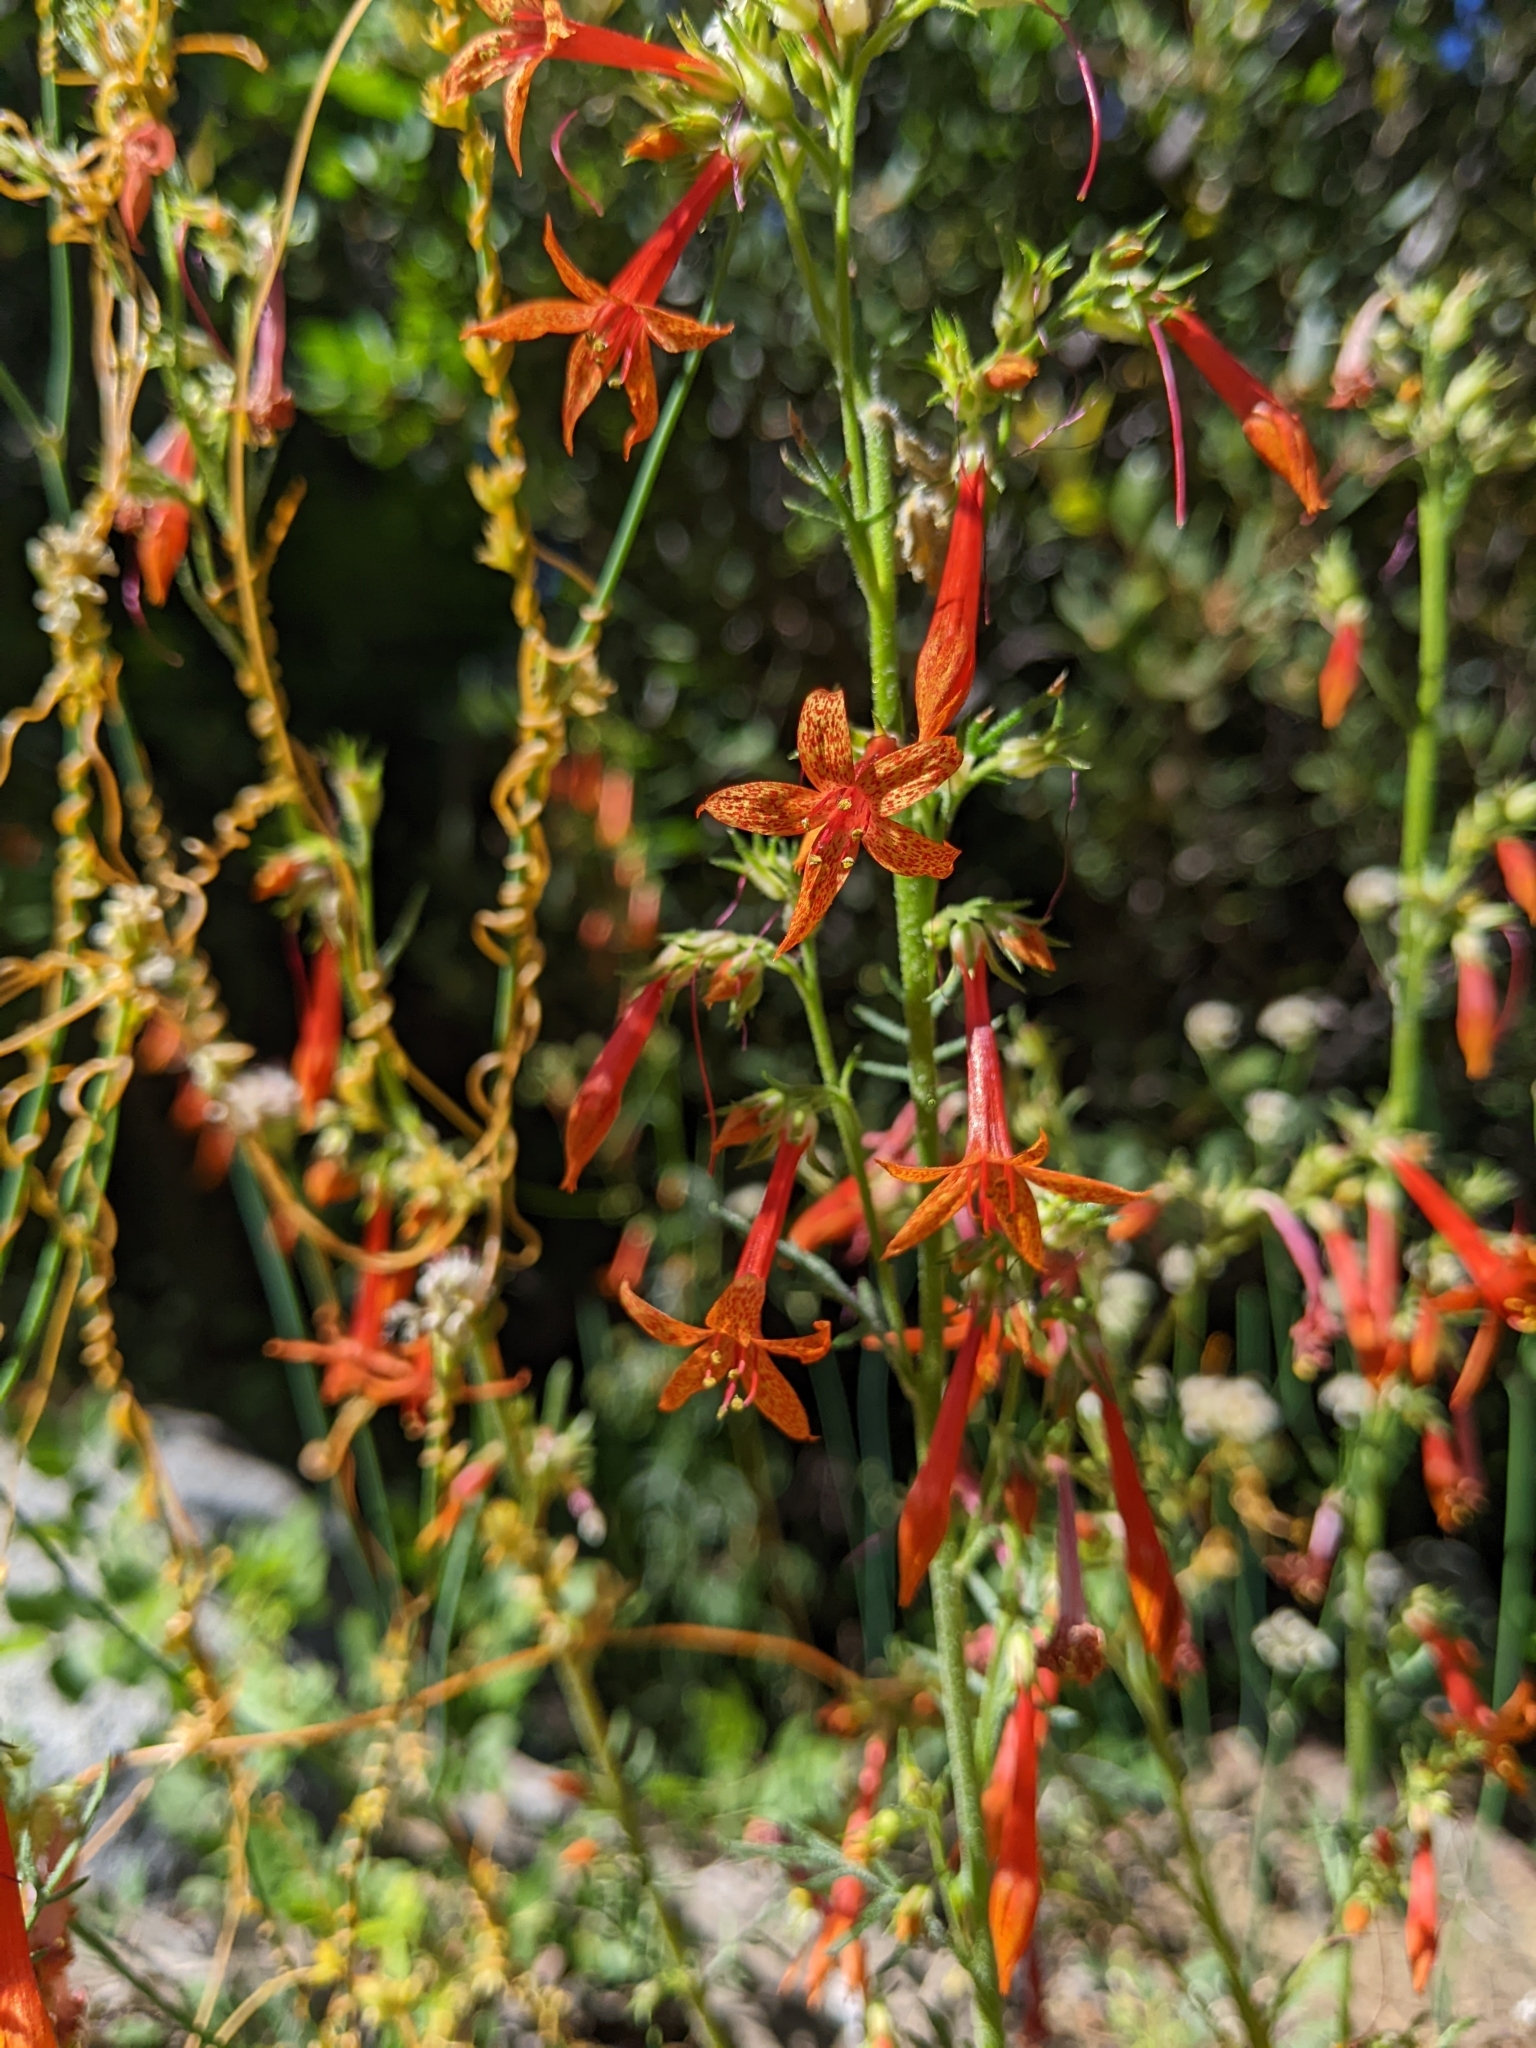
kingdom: Plantae
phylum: Tracheophyta
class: Magnoliopsida
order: Ericales
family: Polemoniaceae
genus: Ipomopsis
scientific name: Ipomopsis aggregata
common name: Scarlet gilia
